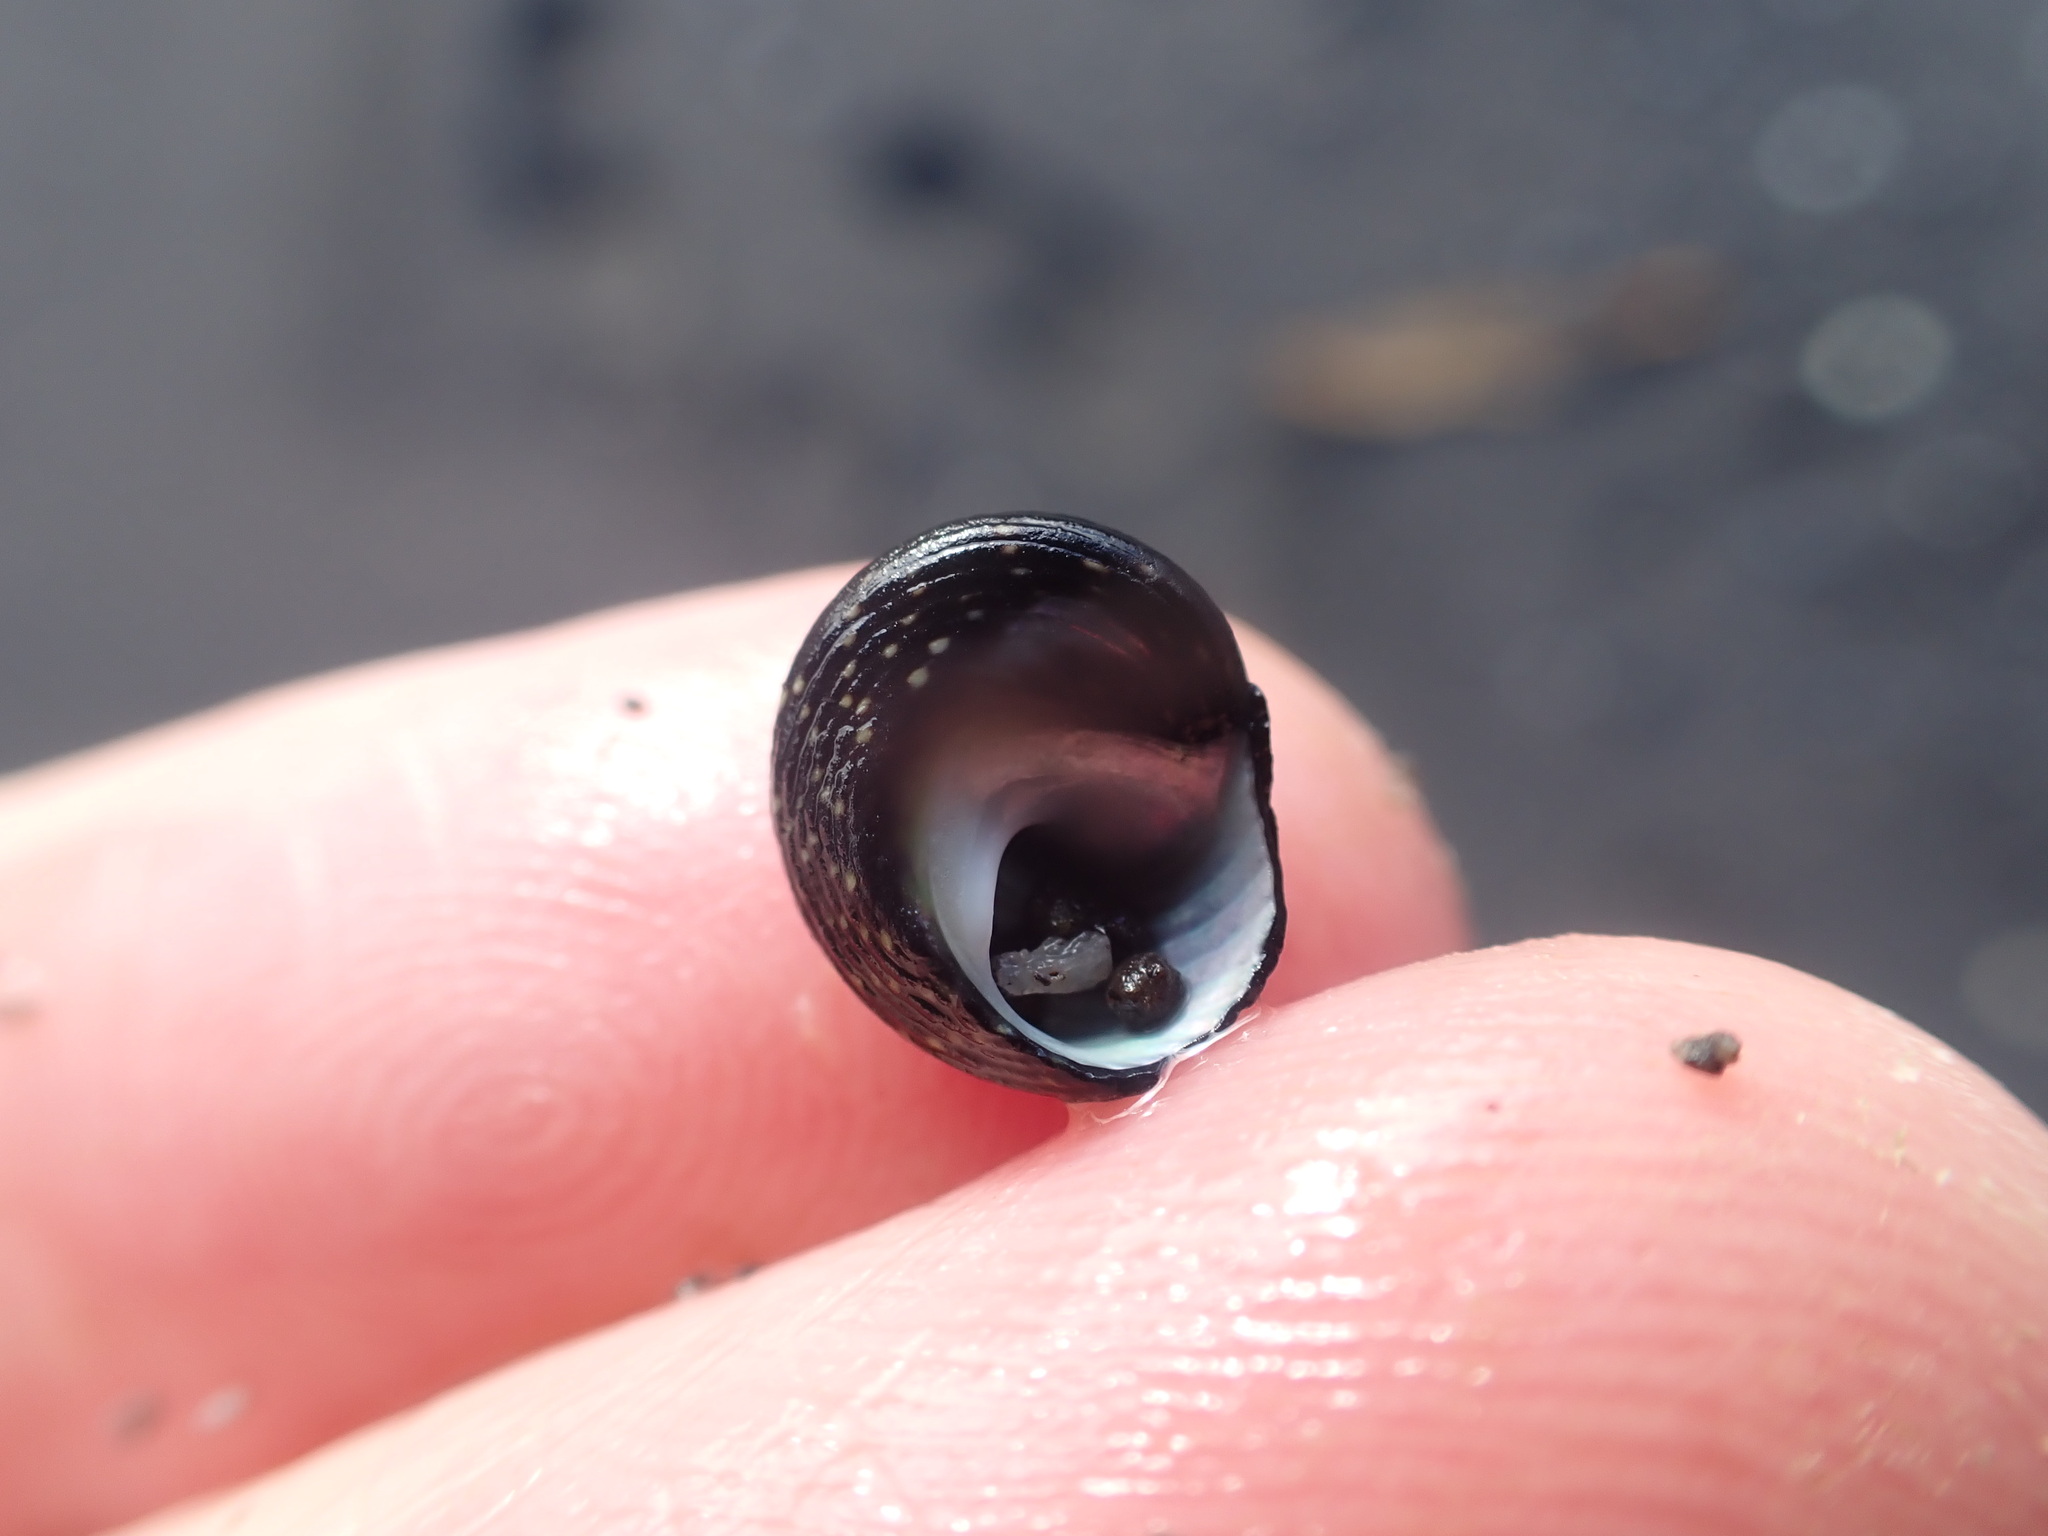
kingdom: Animalia
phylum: Mollusca
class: Gastropoda
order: Trochida
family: Trochidae
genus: Diloma
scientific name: Diloma aridum
